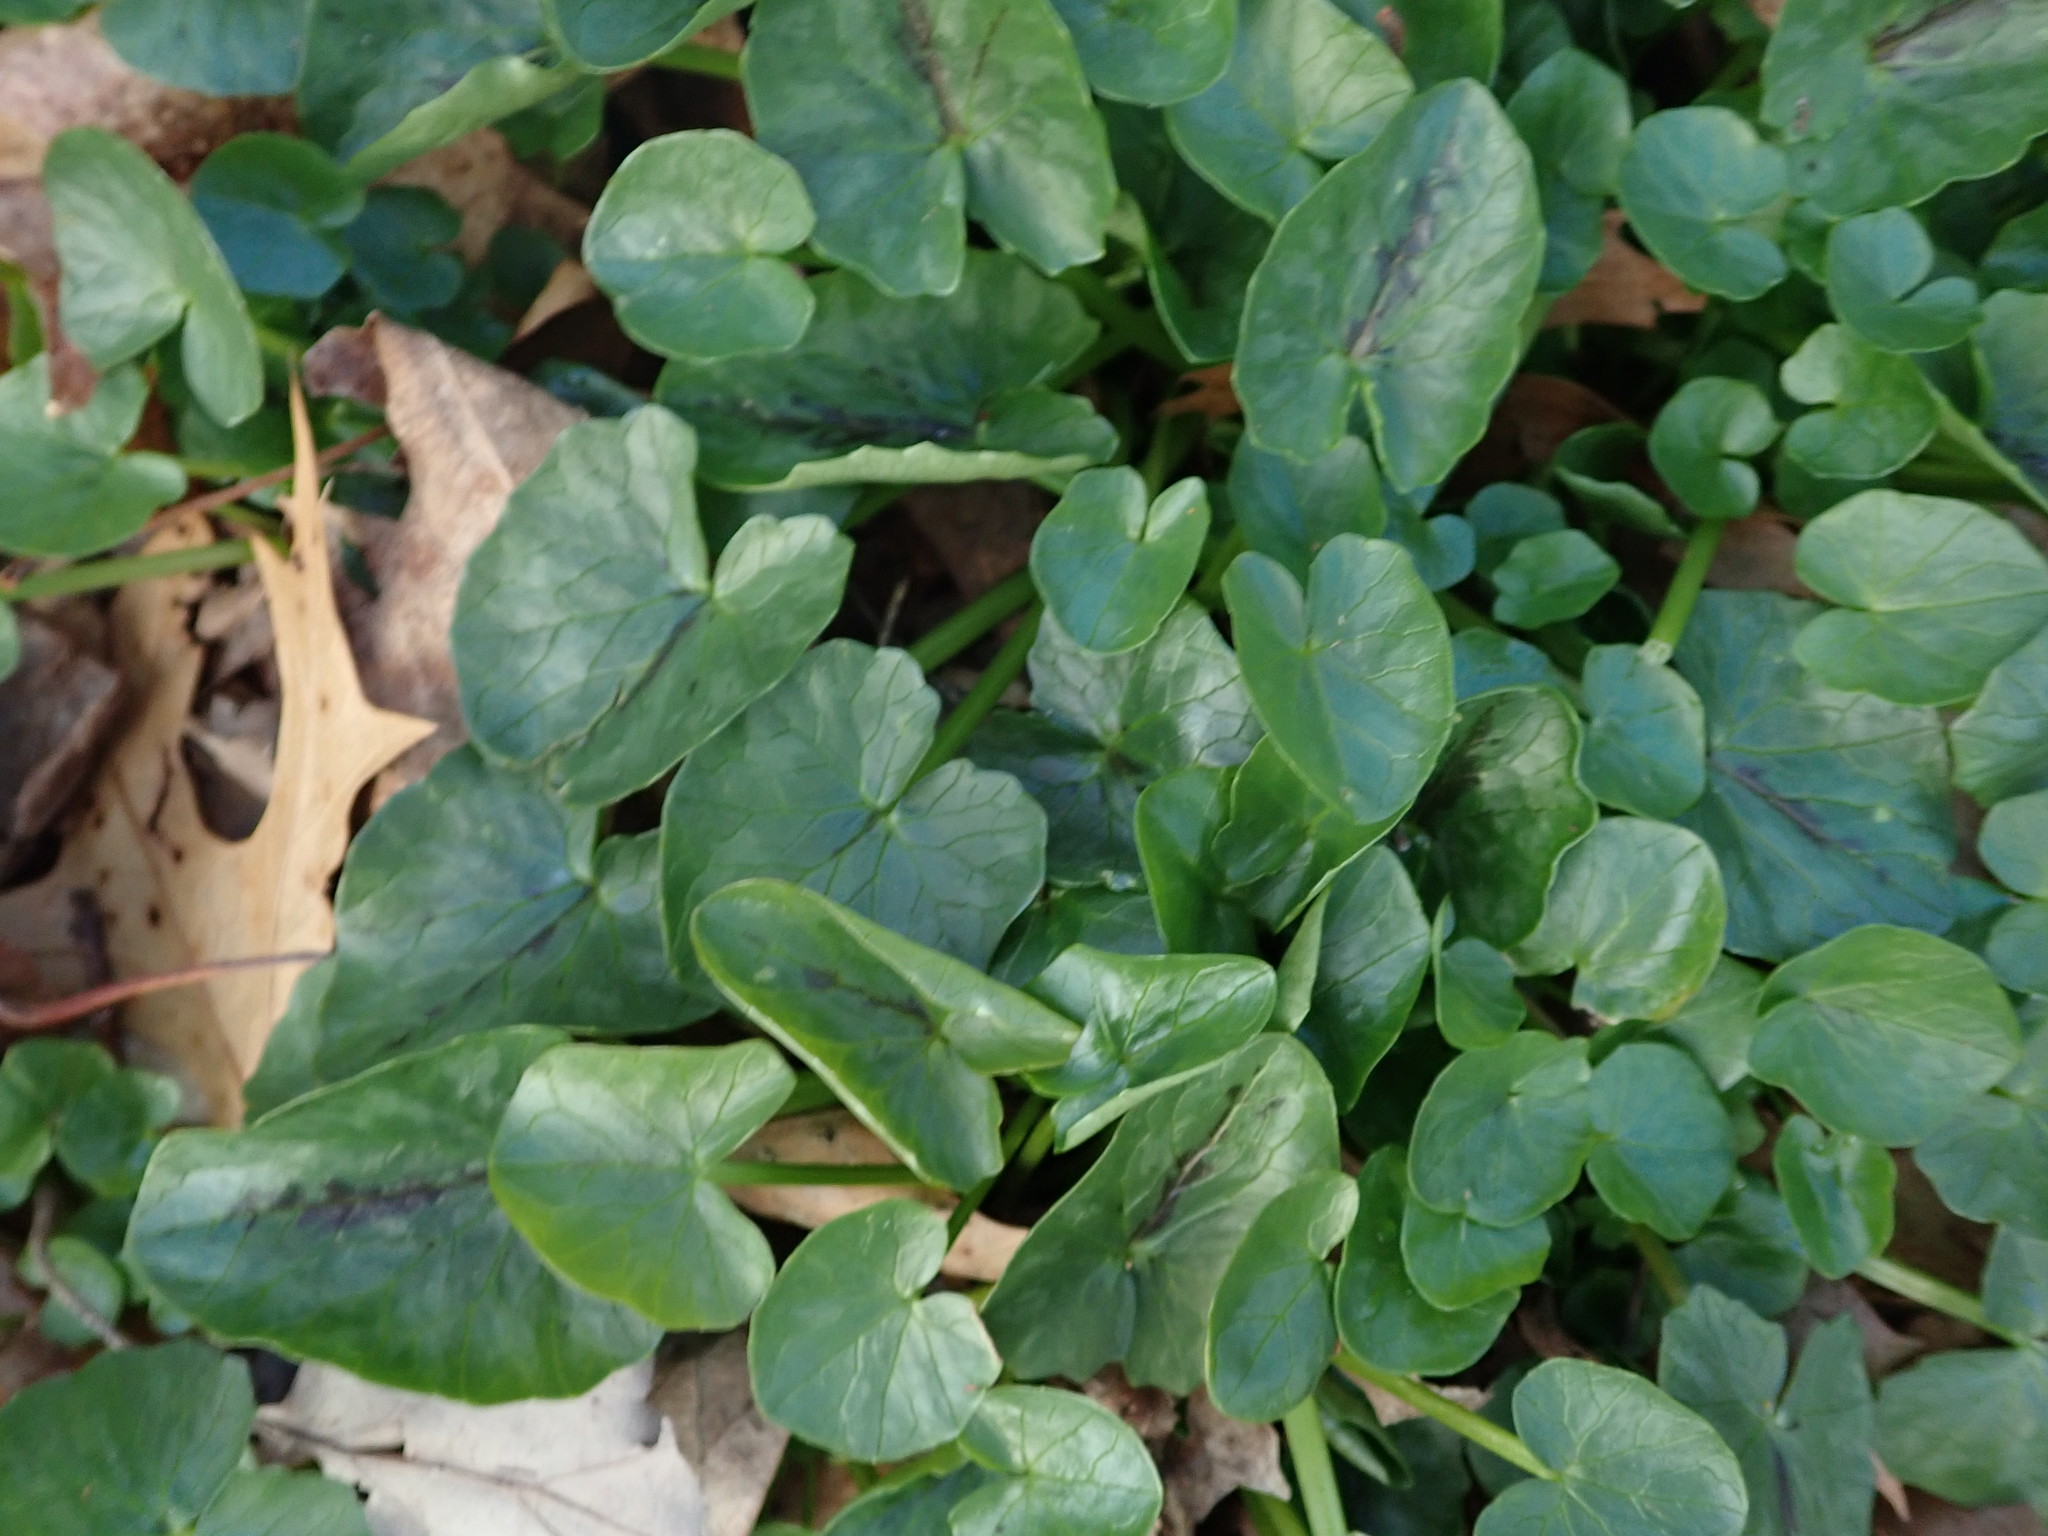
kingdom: Plantae
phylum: Tracheophyta
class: Magnoliopsida
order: Ranunculales
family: Ranunculaceae
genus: Ficaria
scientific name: Ficaria verna
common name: Lesser celandine
